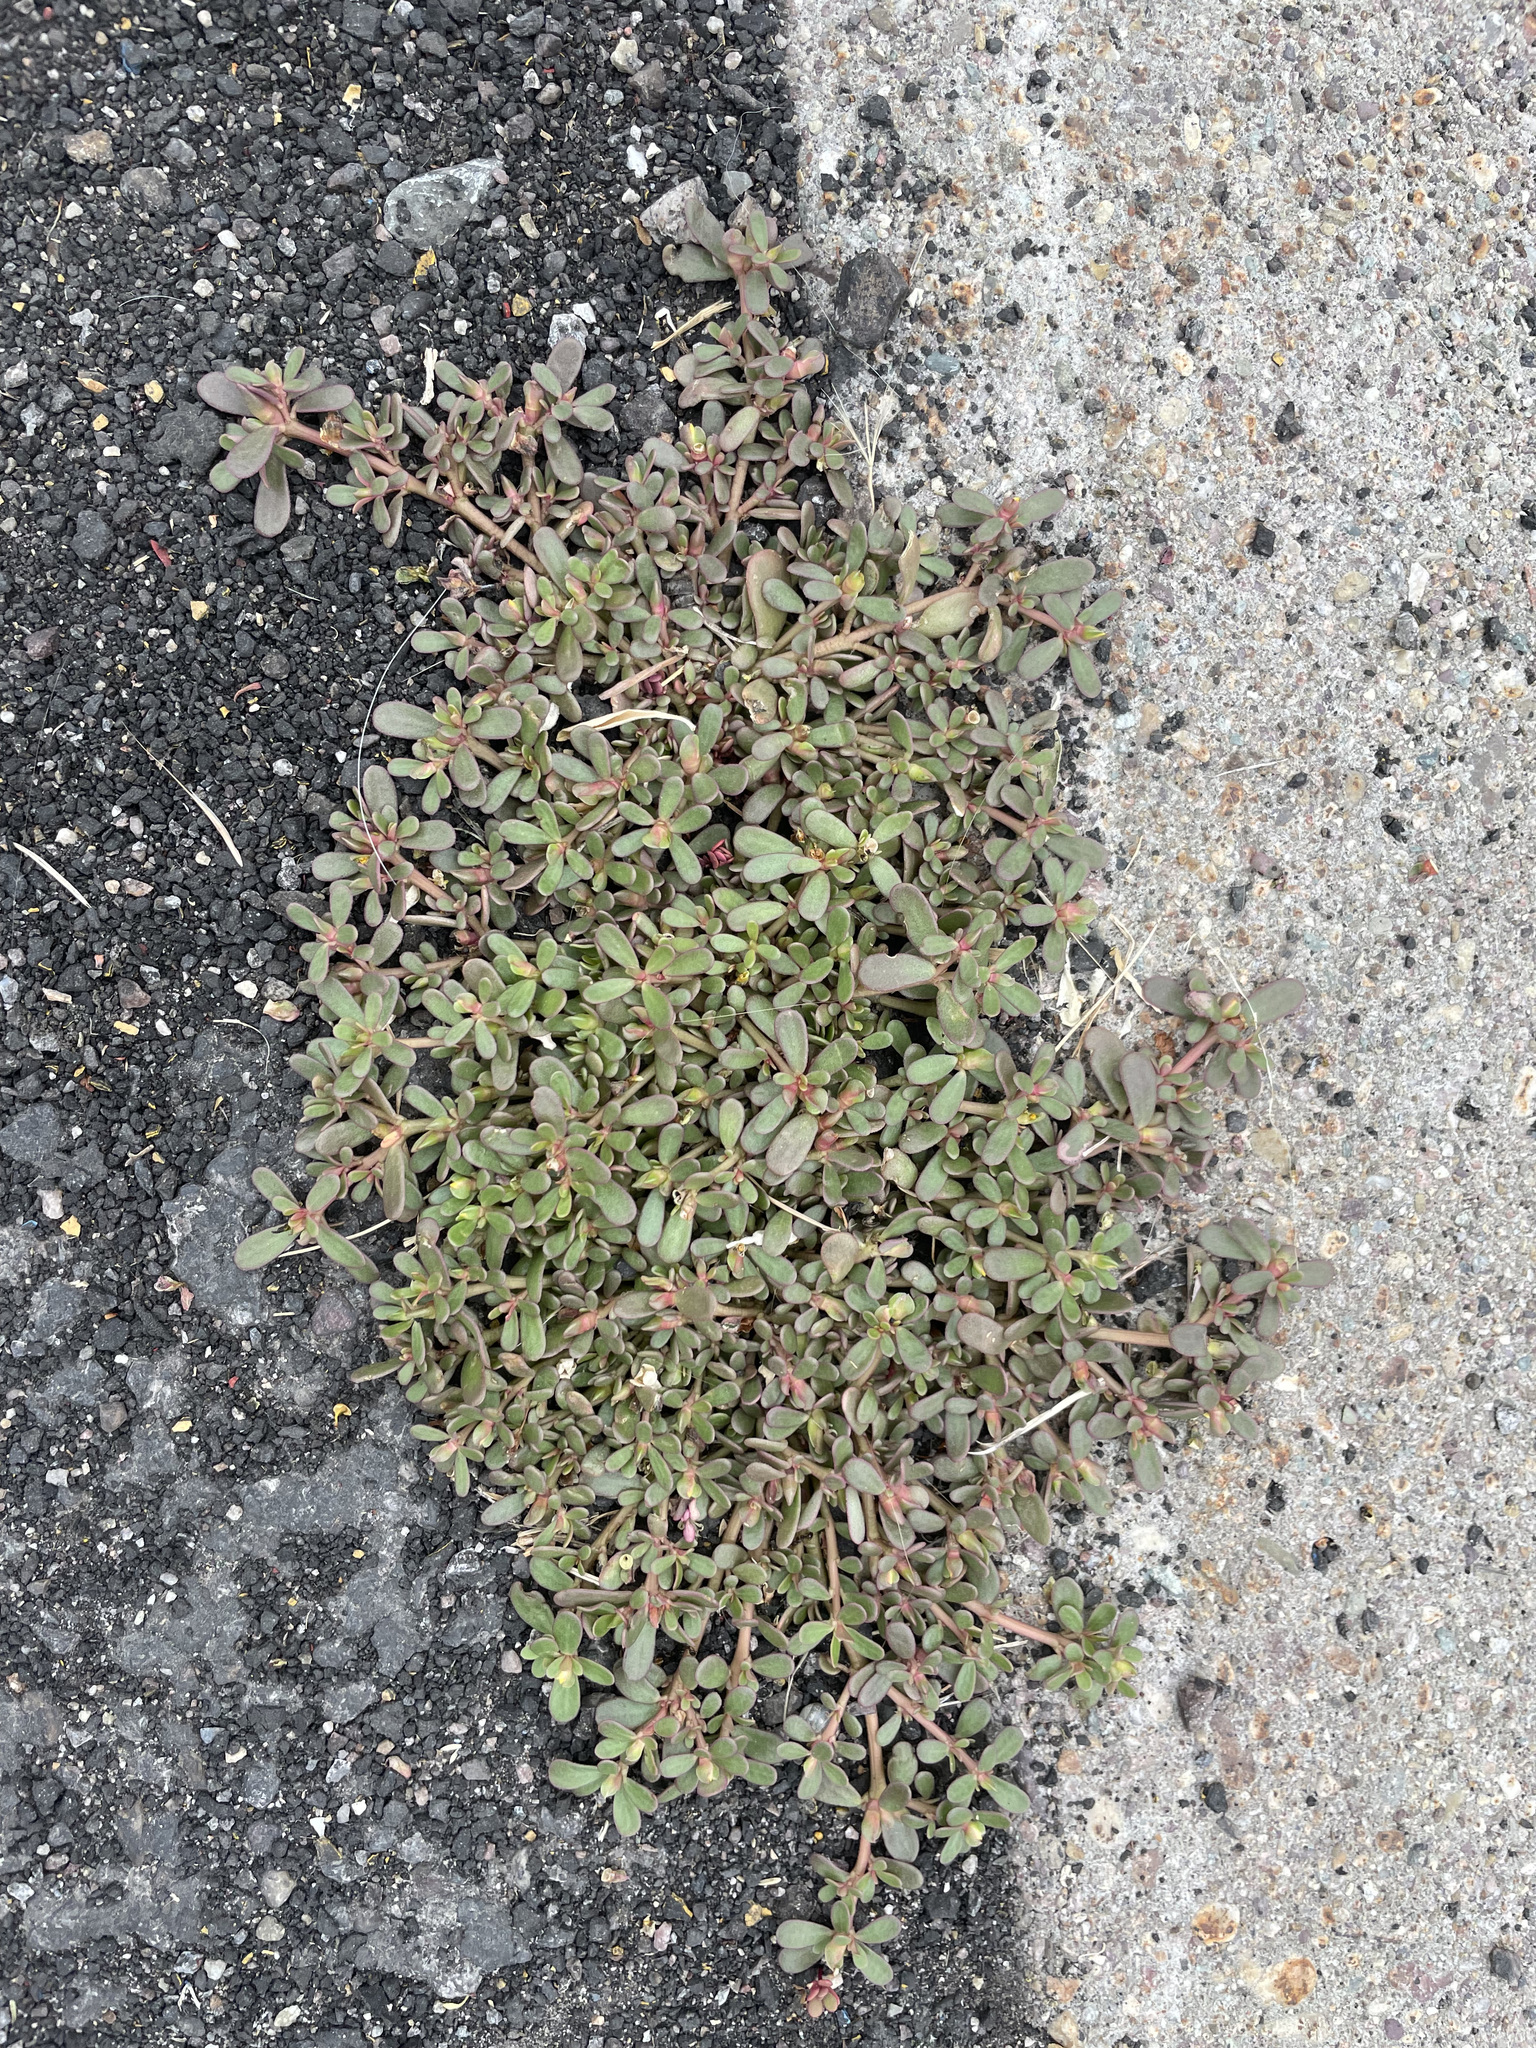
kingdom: Plantae
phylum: Tracheophyta
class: Magnoliopsida
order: Caryophyllales
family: Portulacaceae
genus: Portulaca
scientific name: Portulaca oleracea
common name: Common purslane
